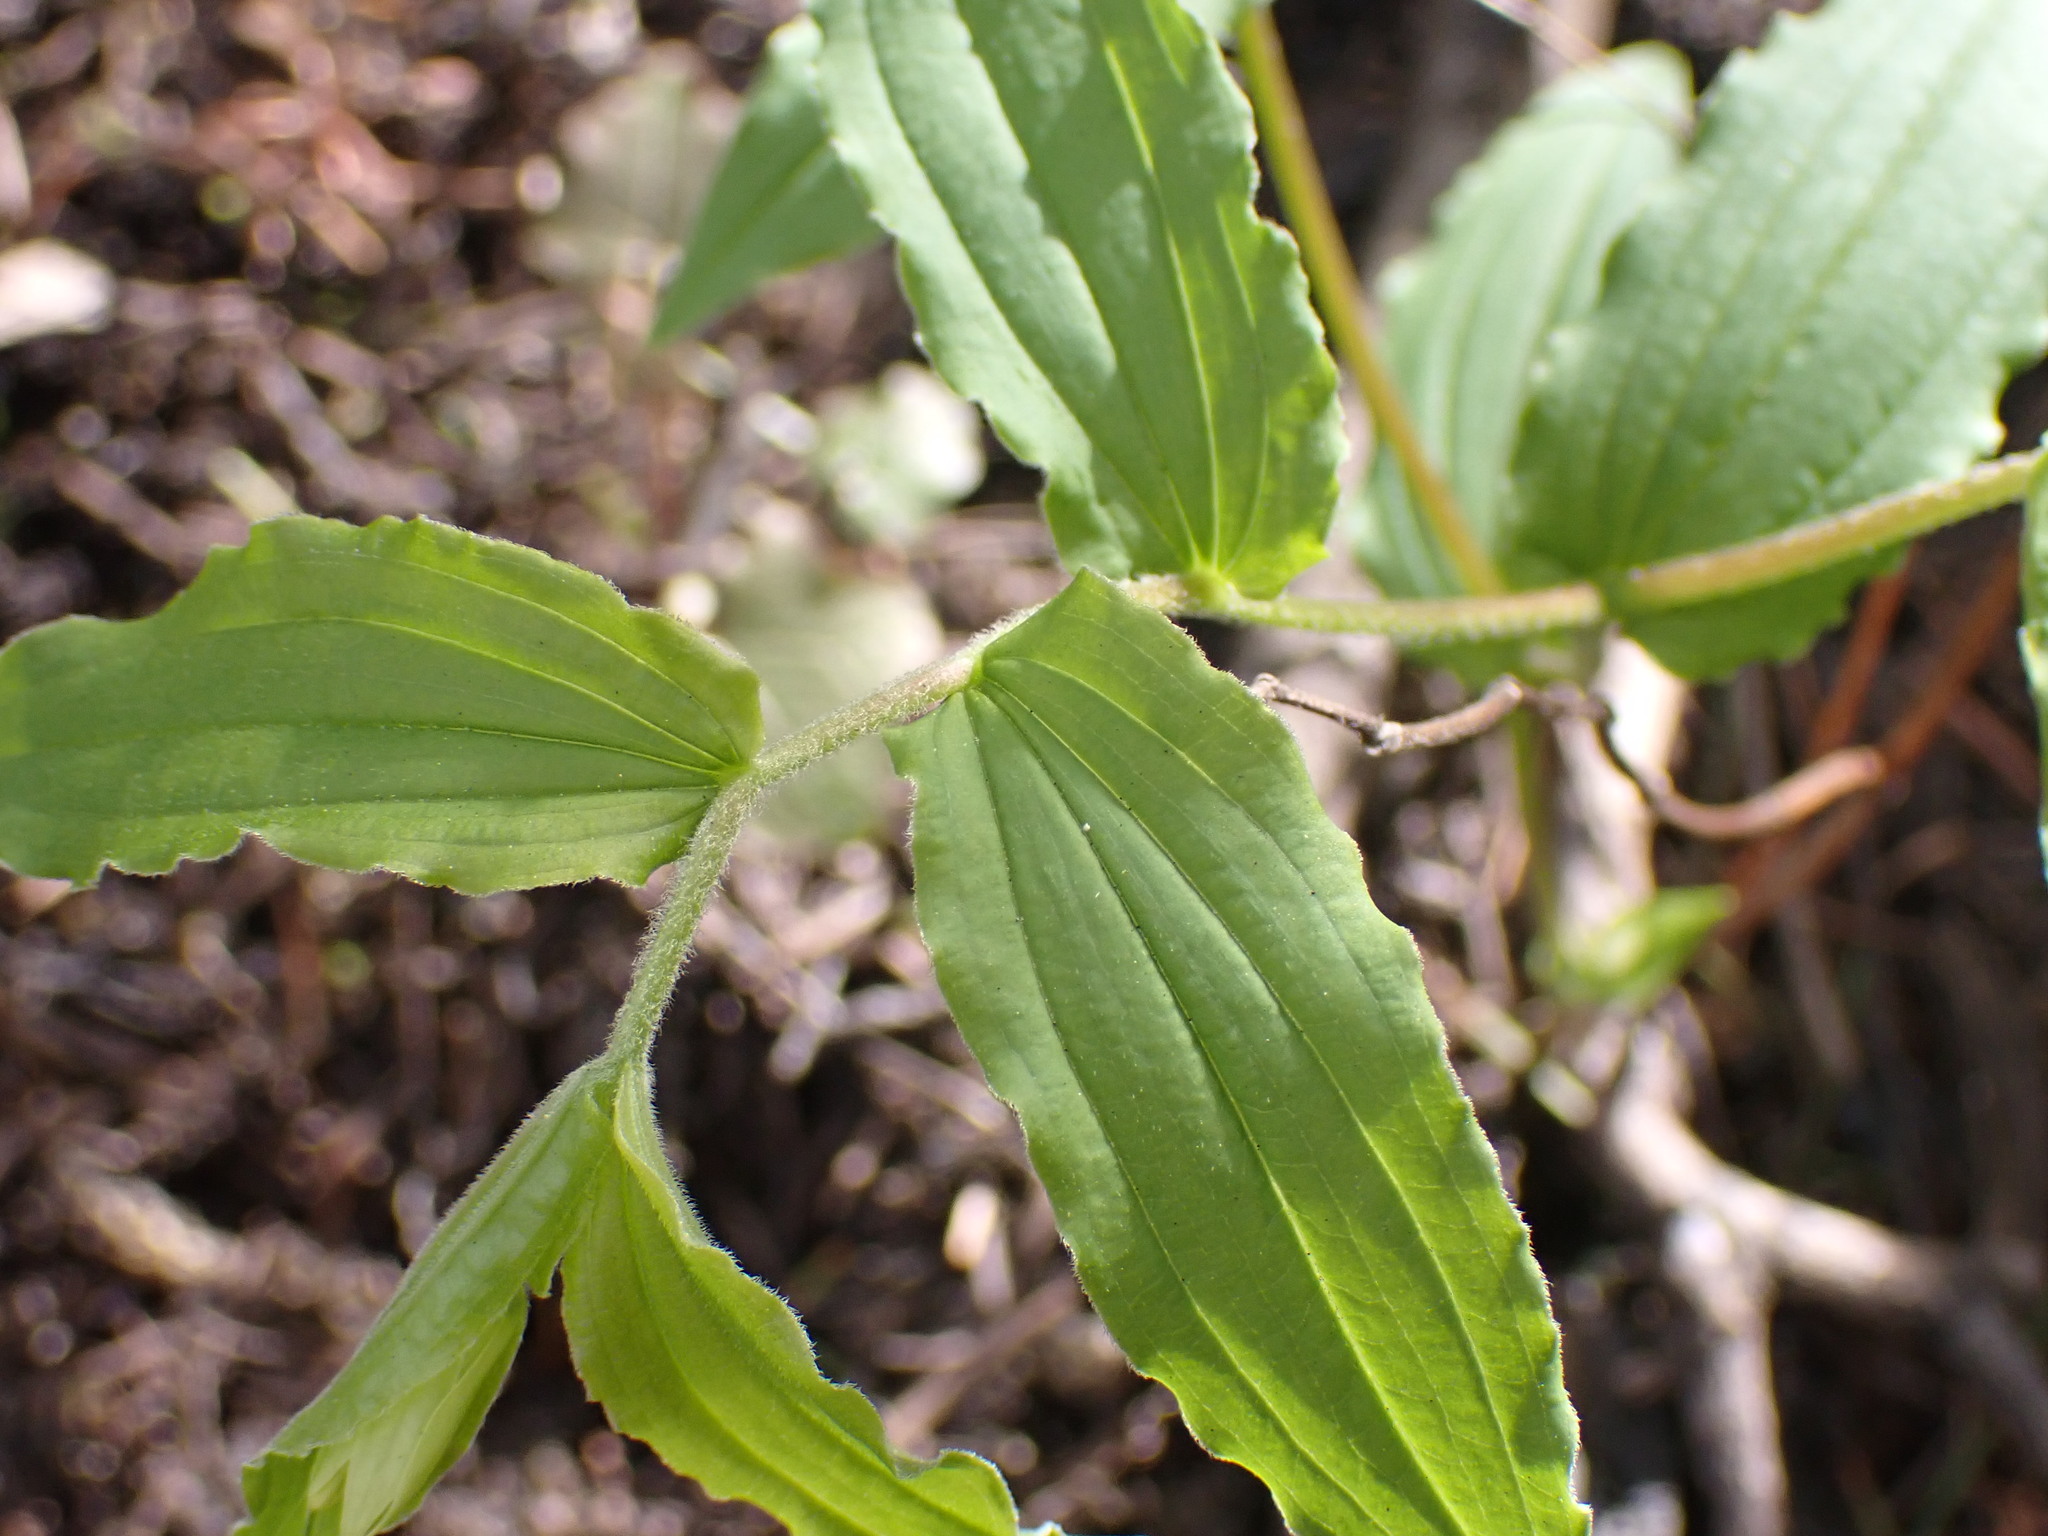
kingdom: Plantae
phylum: Tracheophyta
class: Liliopsida
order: Liliales
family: Liliaceae
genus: Prosartes
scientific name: Prosartes hookeri
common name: Fairy-bells
